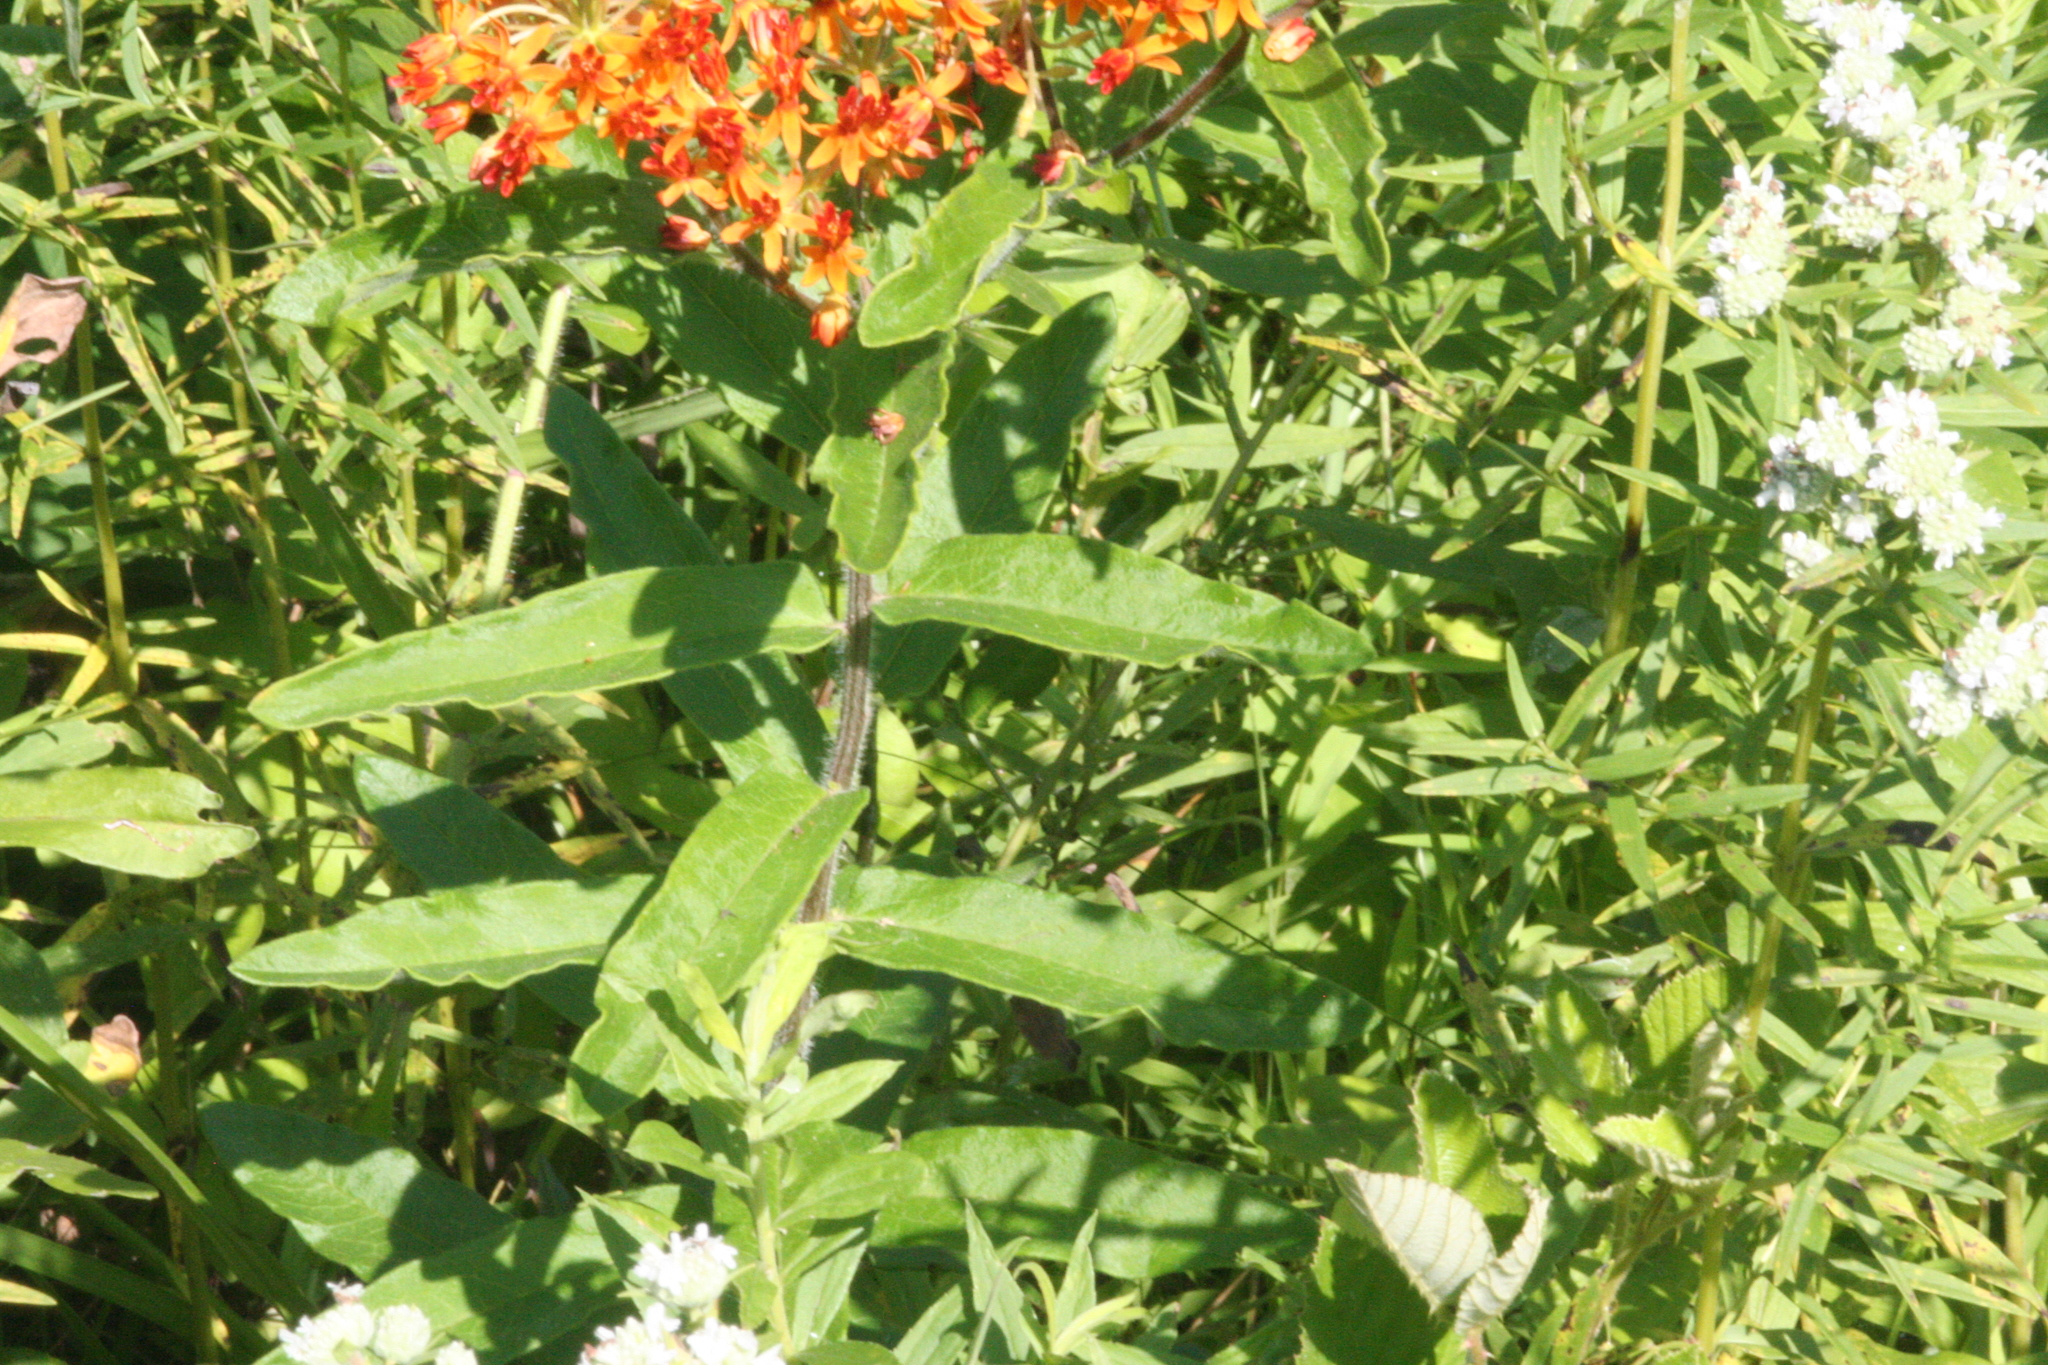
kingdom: Plantae
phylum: Tracheophyta
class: Magnoliopsida
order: Gentianales
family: Apocynaceae
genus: Asclepias
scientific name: Asclepias tuberosa
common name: Butterfly milkweed
